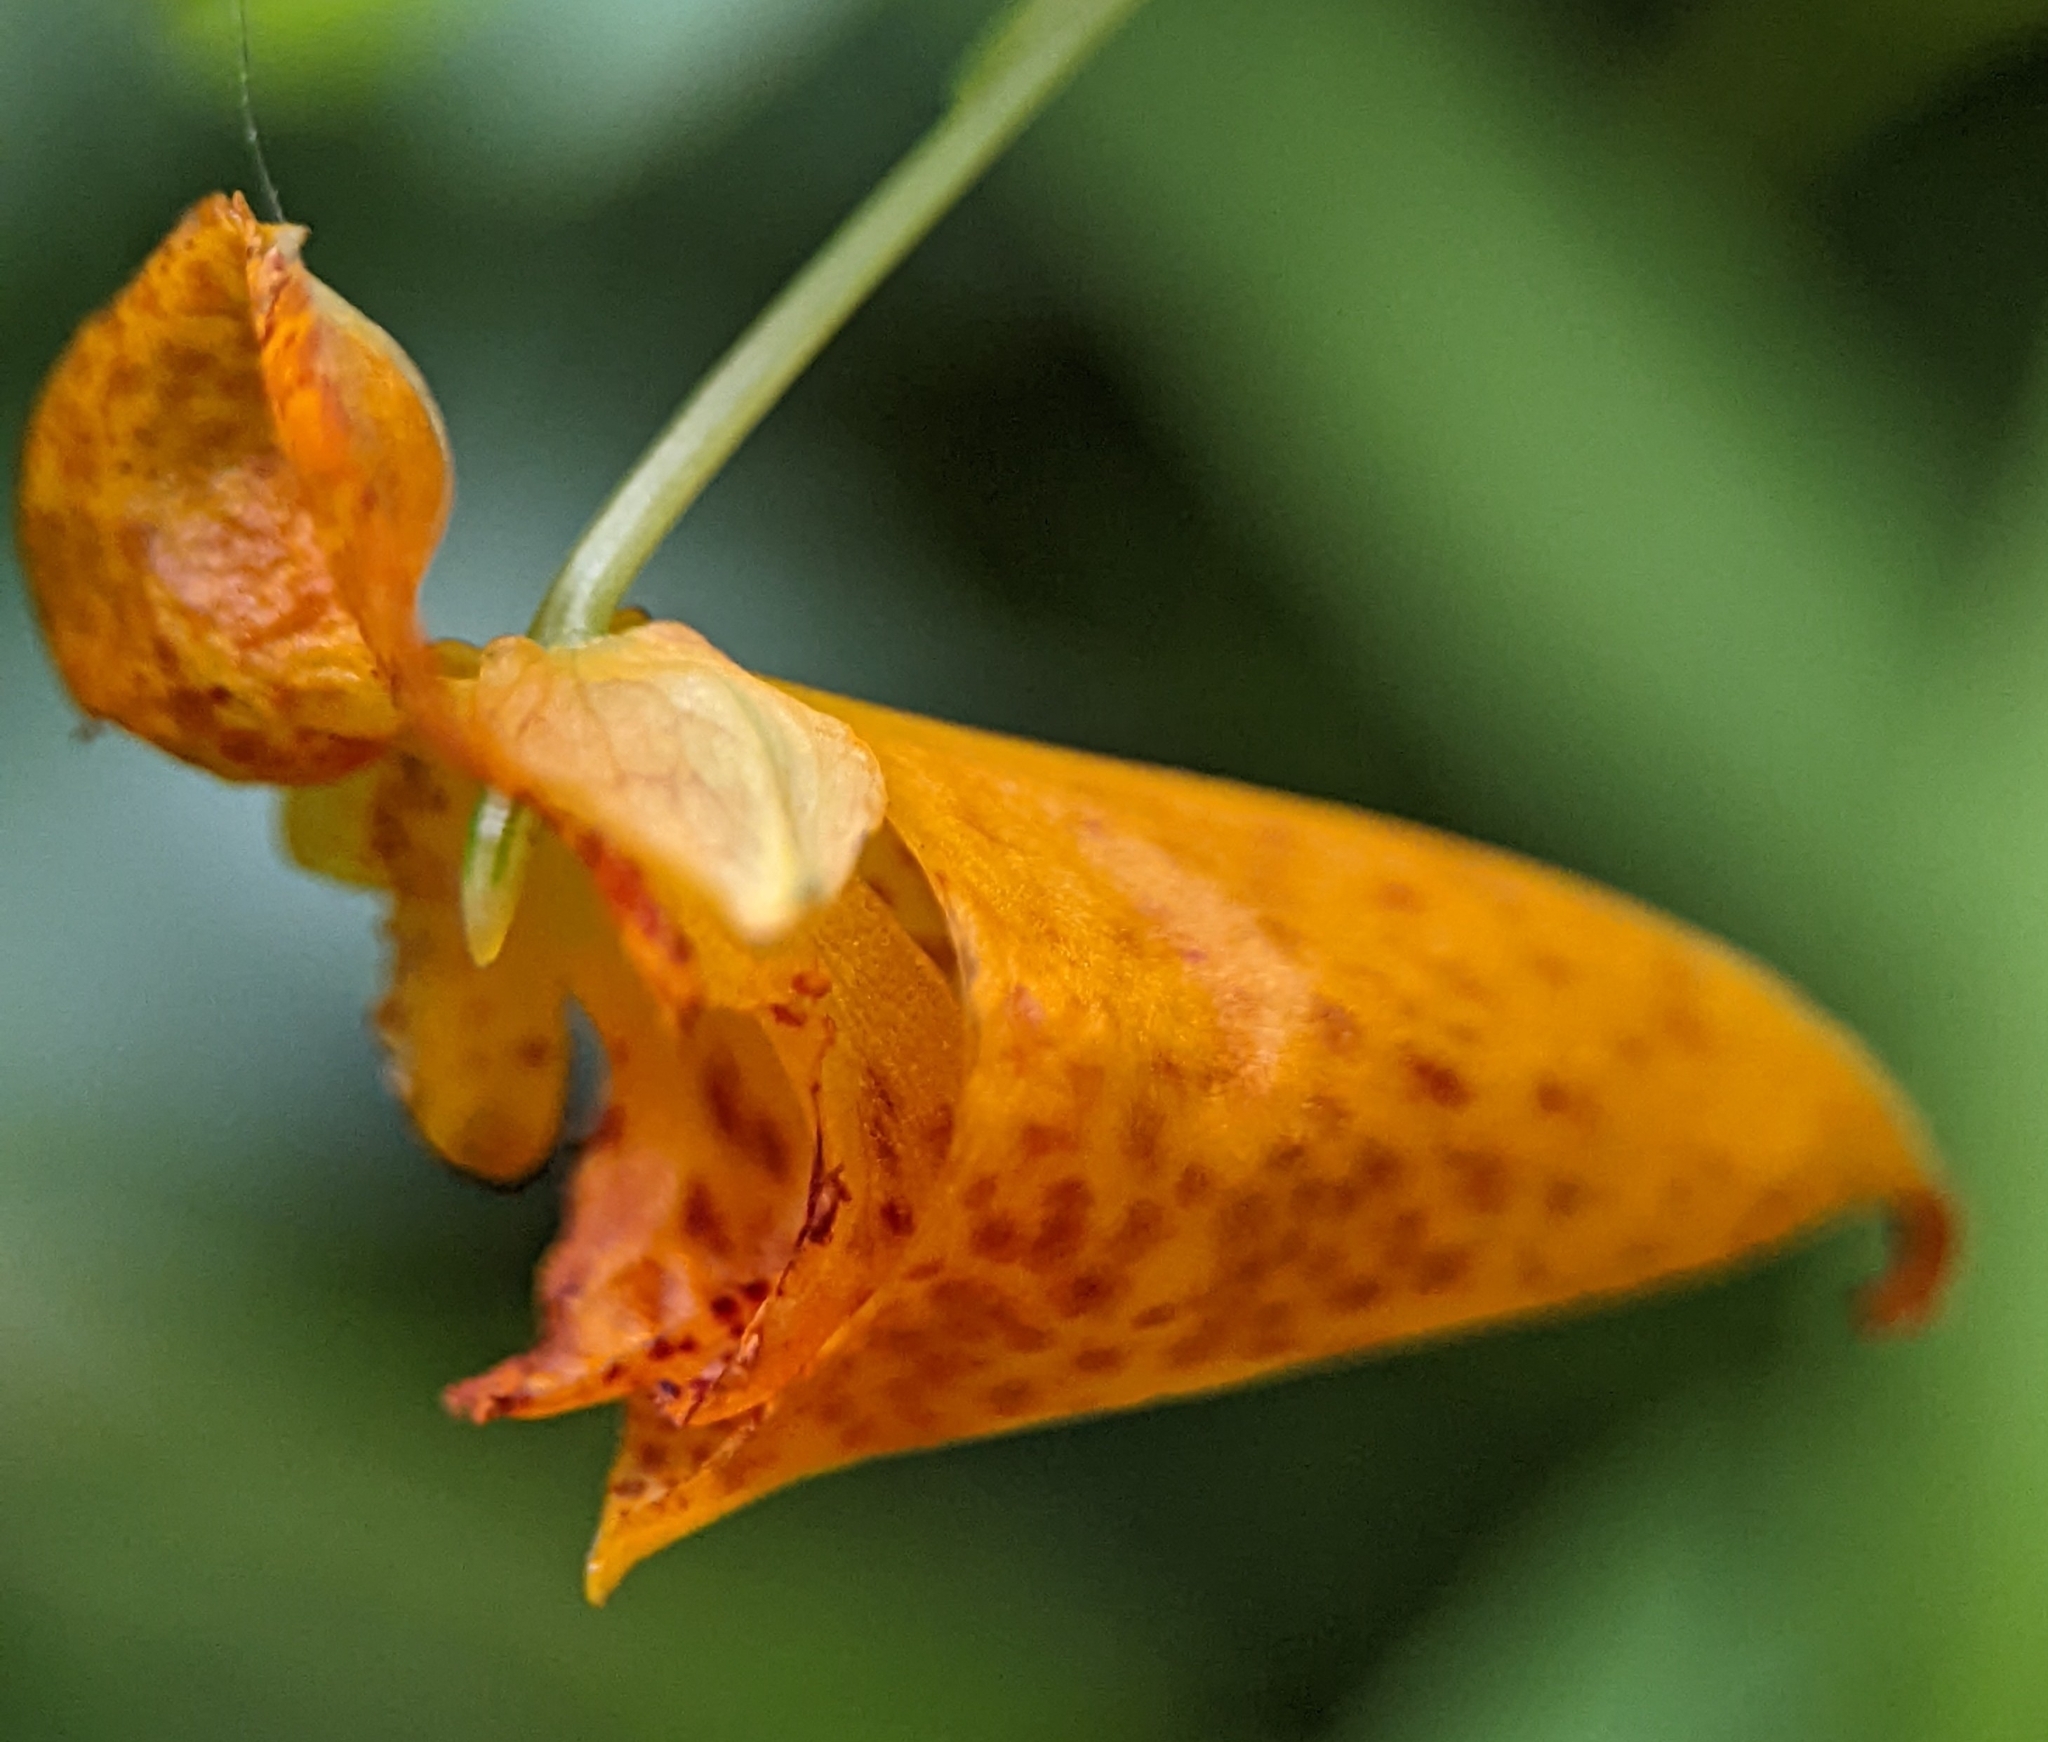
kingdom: Plantae
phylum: Tracheophyta
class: Magnoliopsida
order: Ericales
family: Balsaminaceae
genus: Impatiens
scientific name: Impatiens capensis
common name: Orange balsam
